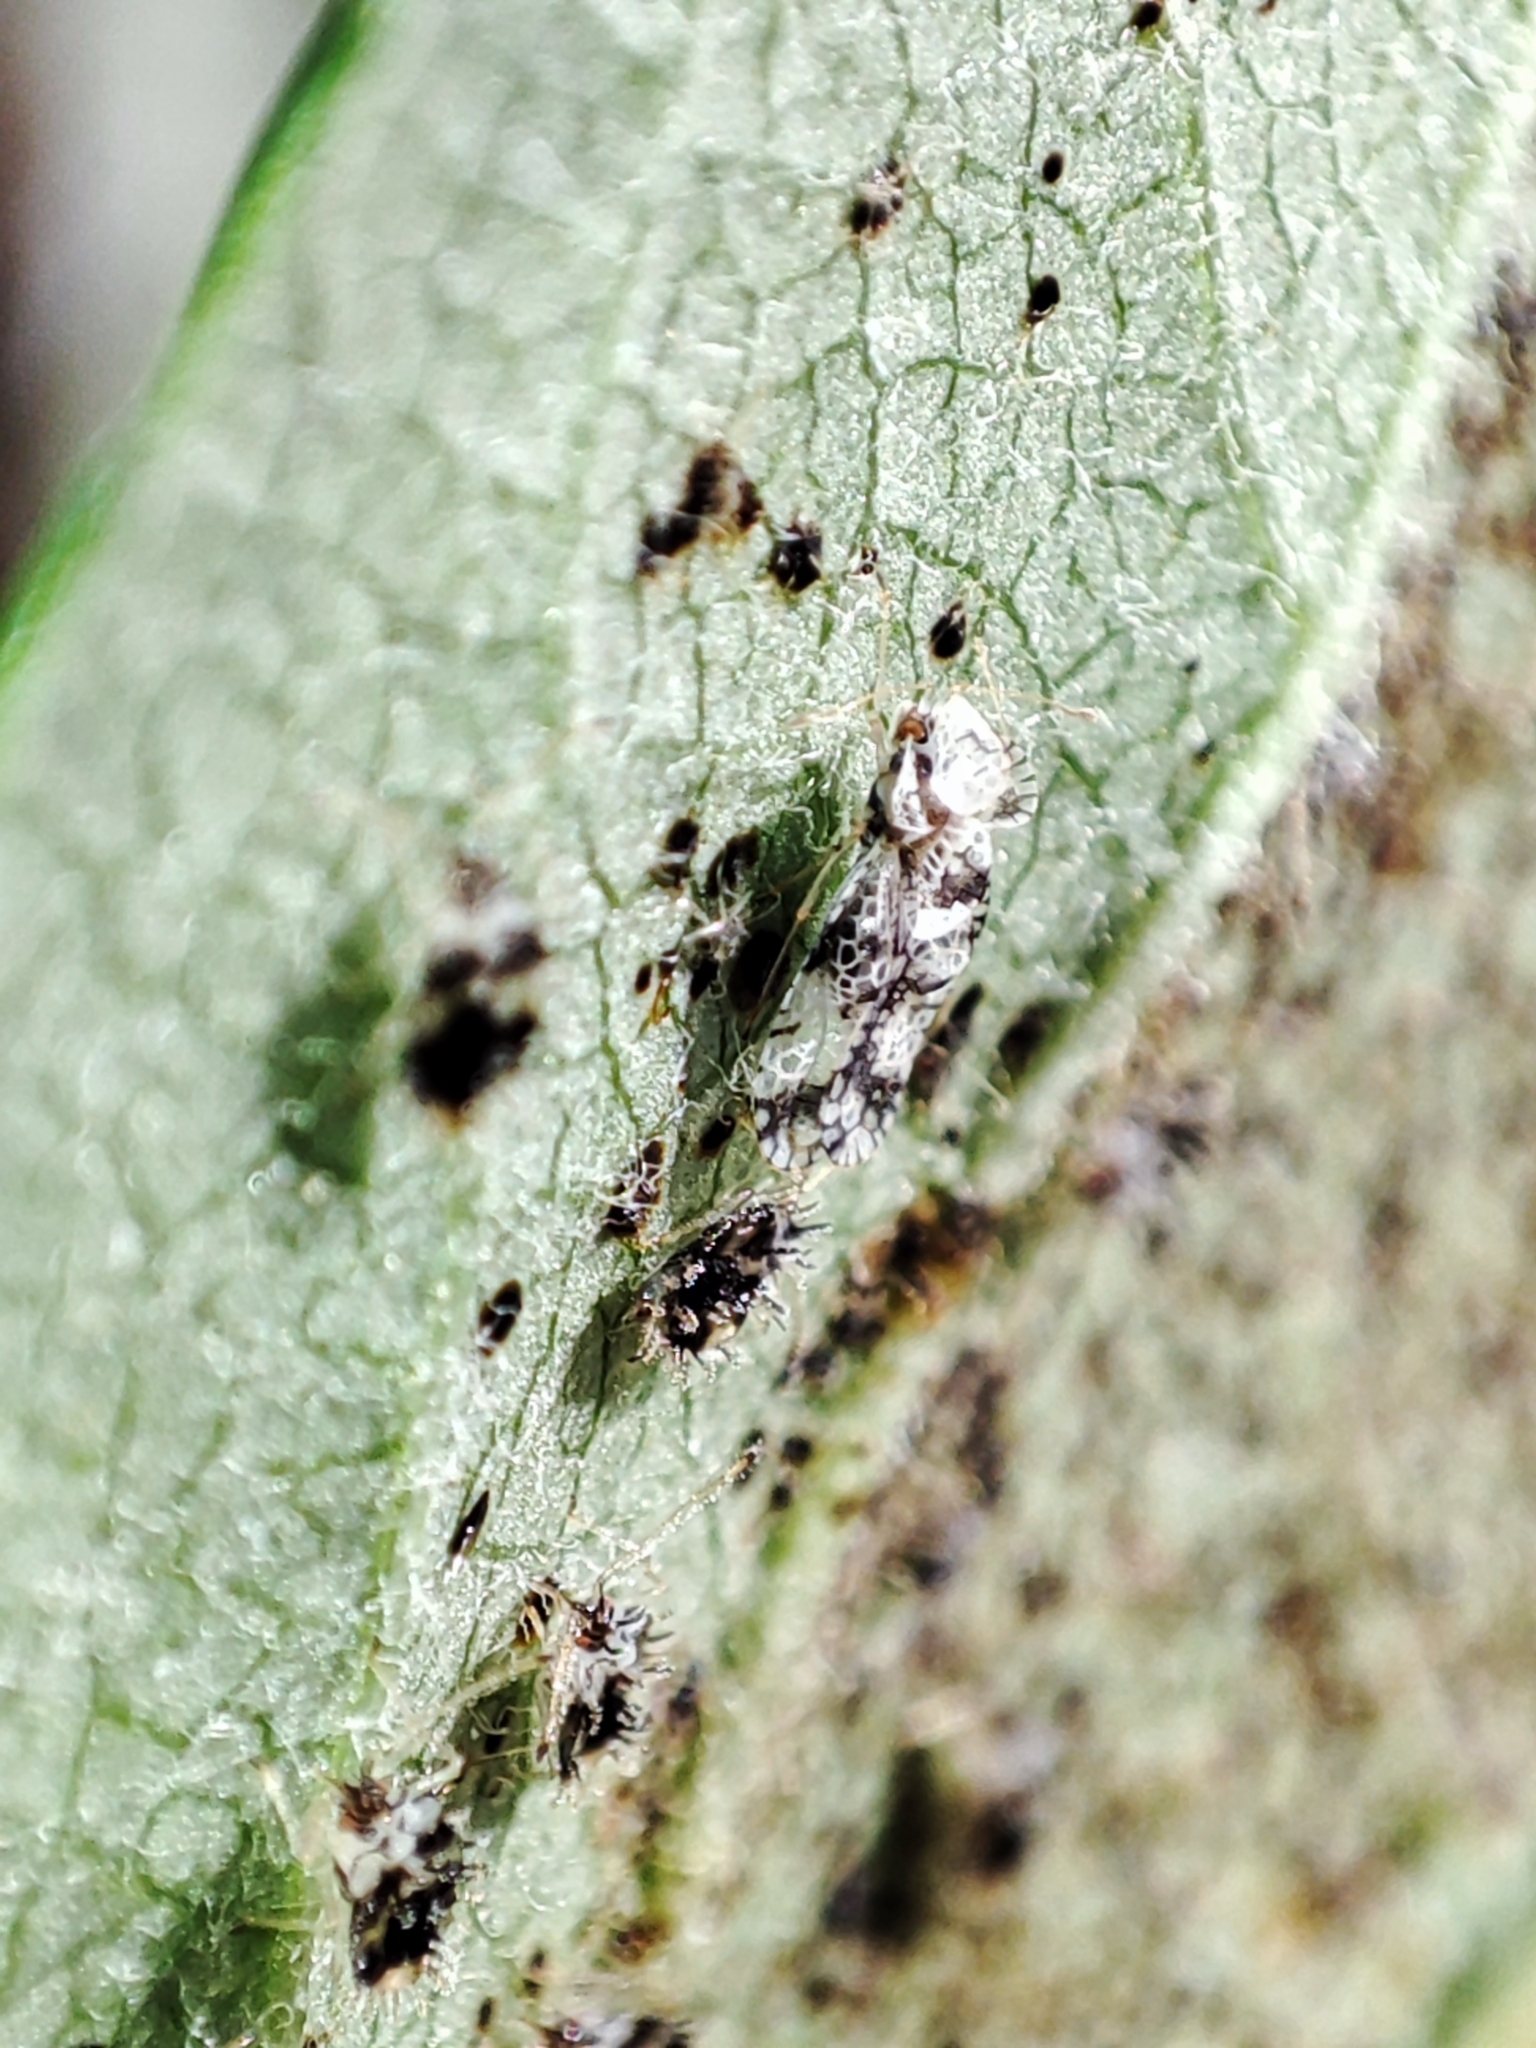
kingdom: Animalia
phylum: Arthropoda
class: Insecta
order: Hemiptera
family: Tingidae
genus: Stephanitis
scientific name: Stephanitis pyri
